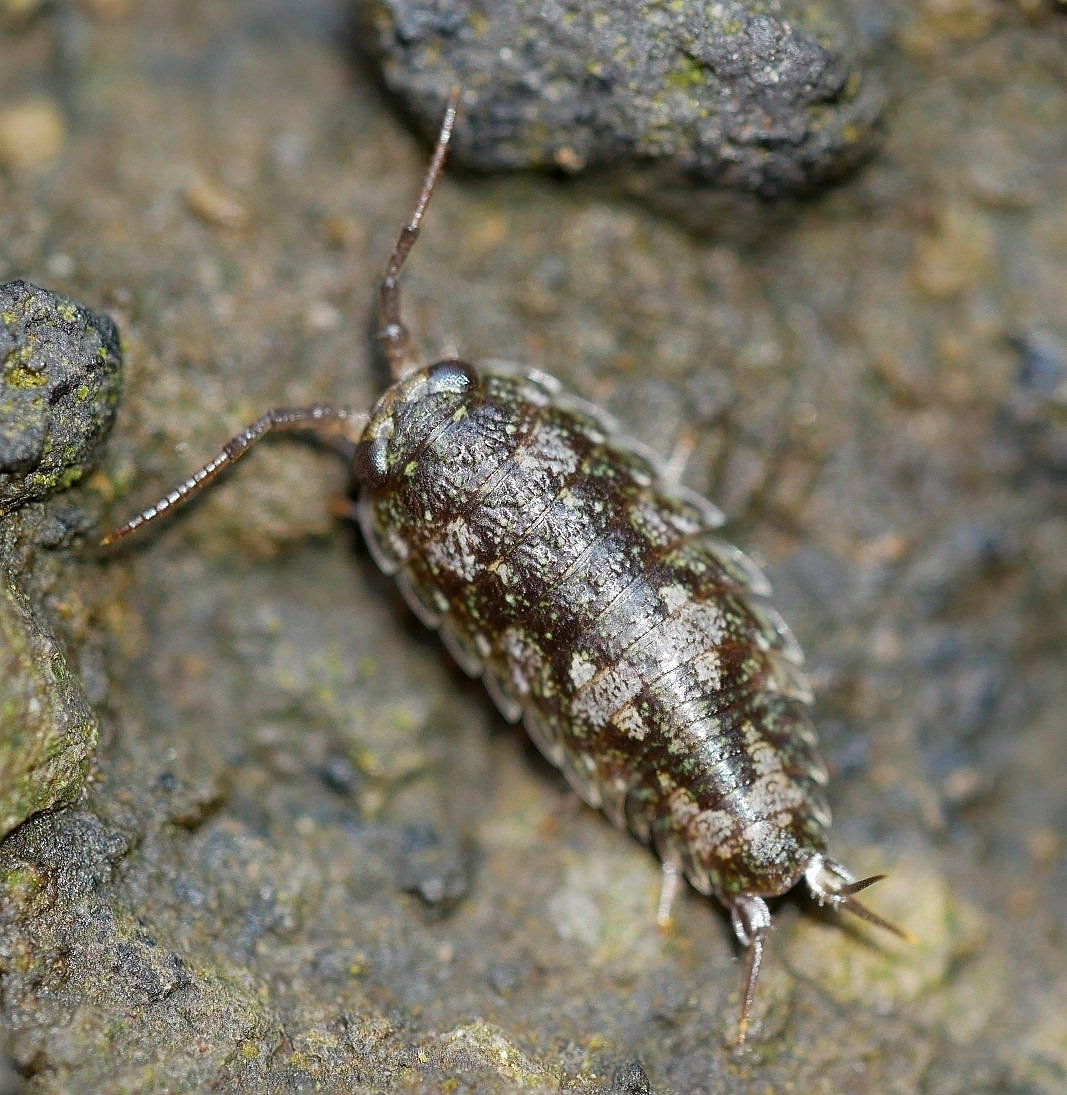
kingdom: Animalia
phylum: Arthropoda
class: Malacostraca
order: Isopoda
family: Ligiidae
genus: Ligia
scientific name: Ligia pallasii
